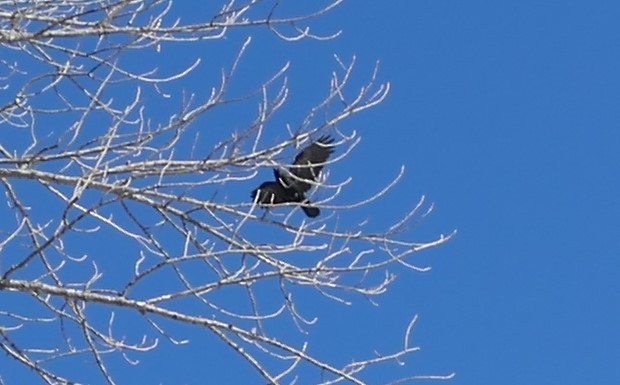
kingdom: Animalia
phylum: Chordata
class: Aves
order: Passeriformes
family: Corvidae
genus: Corvus
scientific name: Corvus brachyrhynchos
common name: American crow
